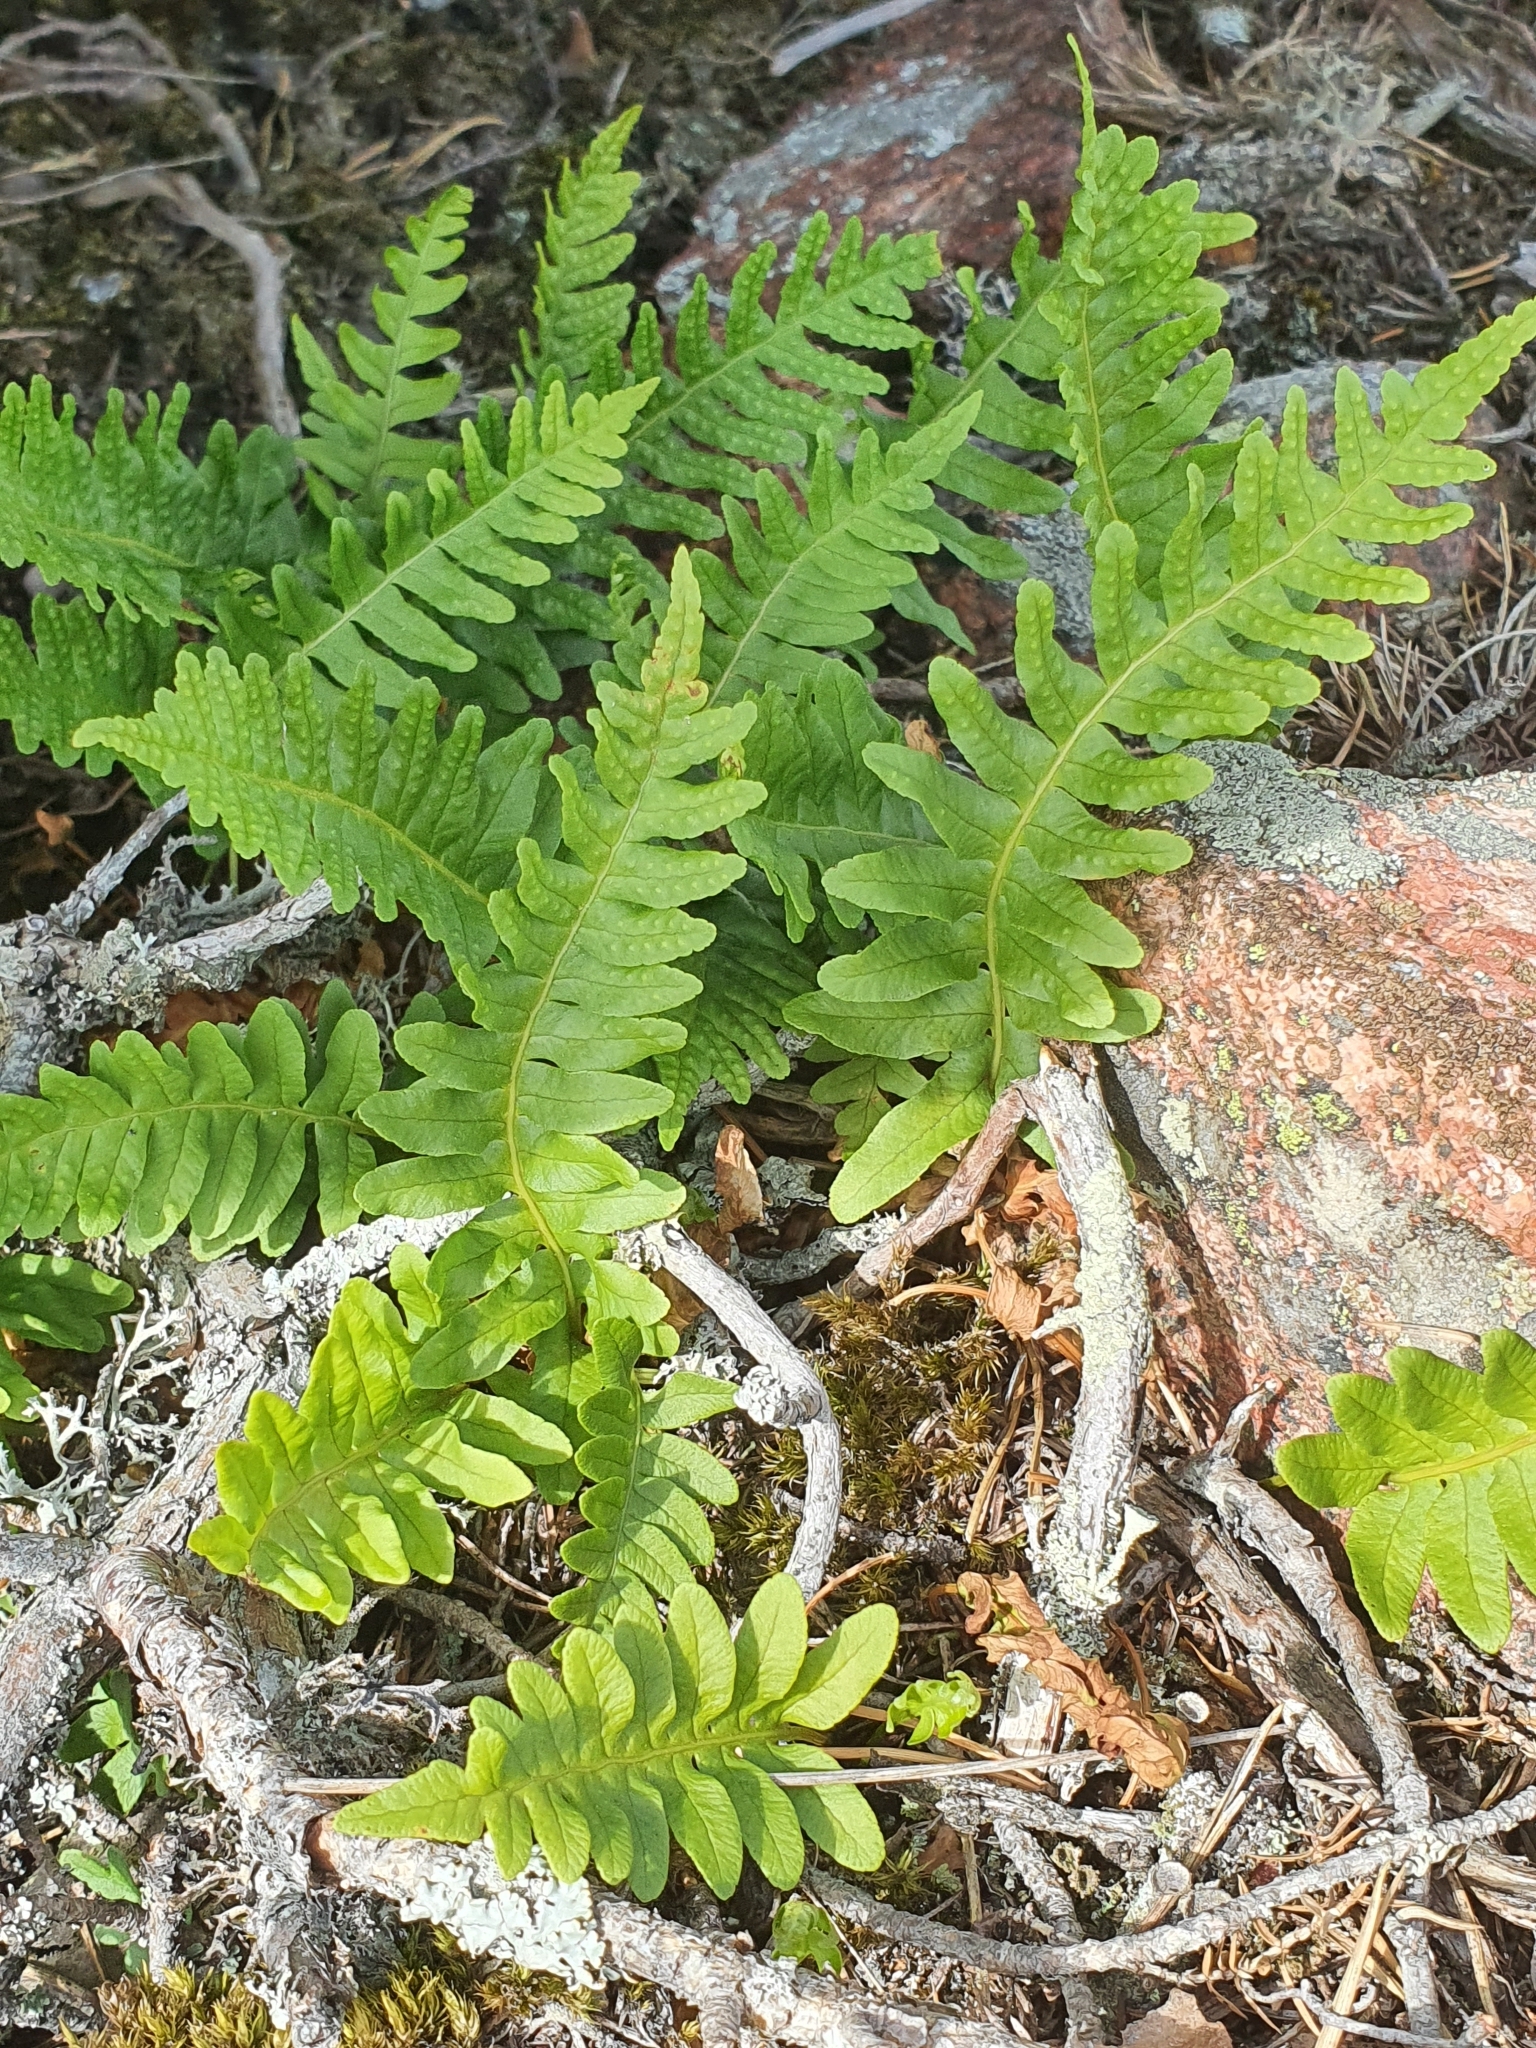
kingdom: Plantae
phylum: Tracheophyta
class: Polypodiopsida
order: Polypodiales
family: Polypodiaceae
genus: Polypodium
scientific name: Polypodium vulgare
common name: Common polypody
